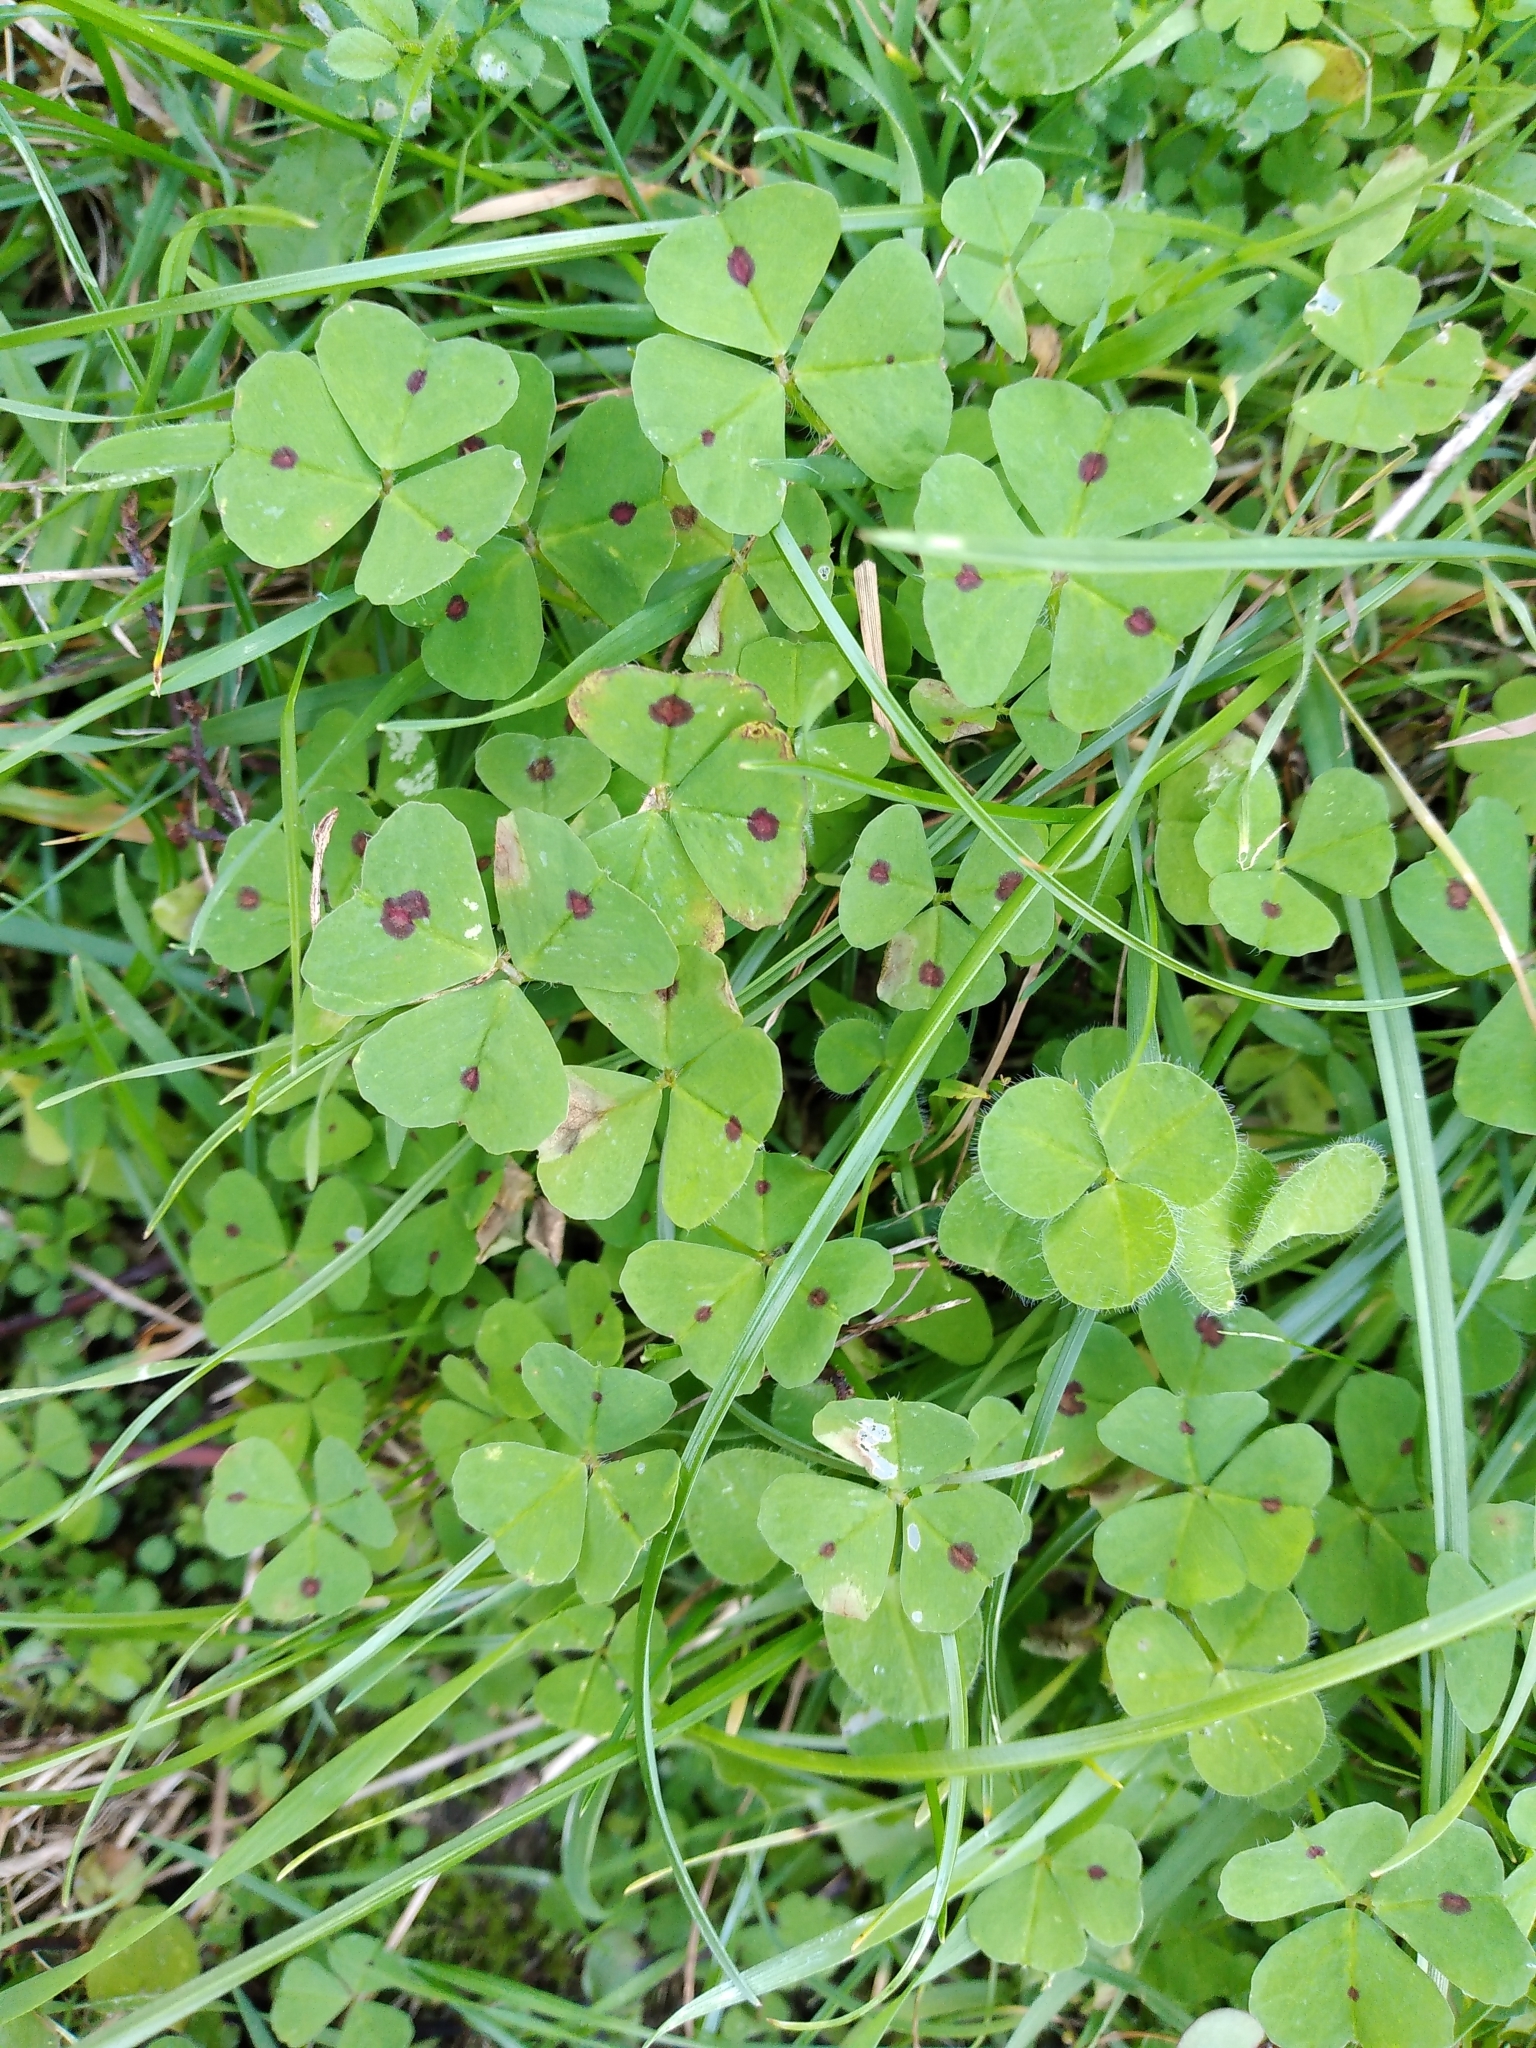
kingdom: Plantae
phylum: Tracheophyta
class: Magnoliopsida
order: Fabales
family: Fabaceae
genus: Medicago
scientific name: Medicago arabica
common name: Spotted medick
